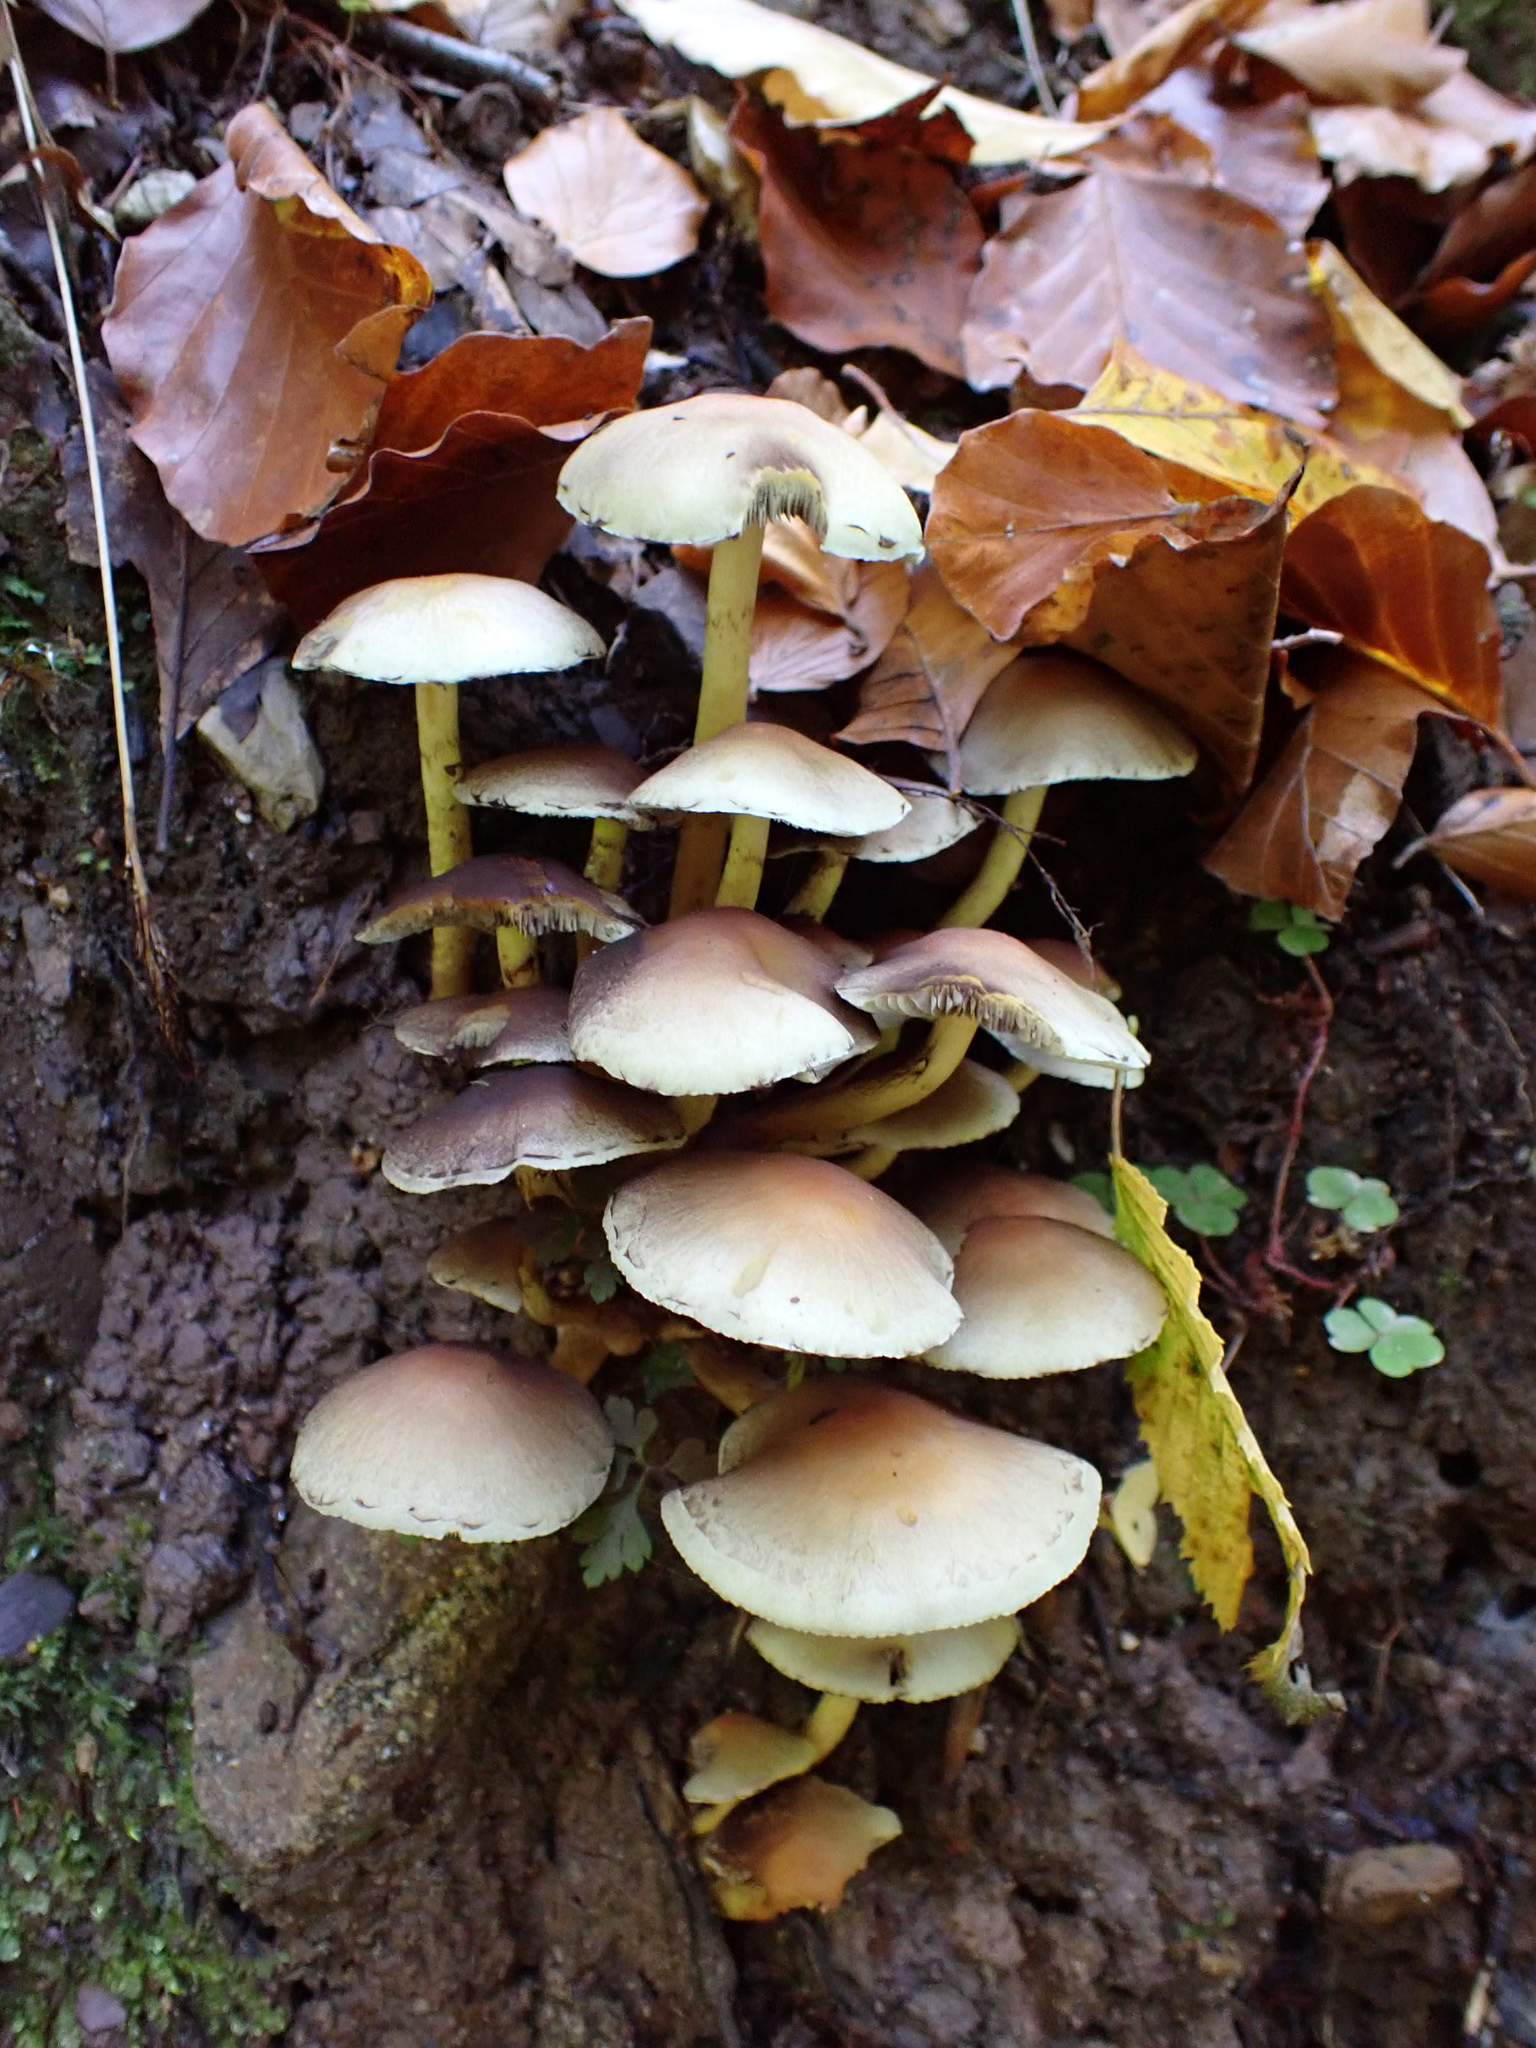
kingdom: Fungi
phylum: Basidiomycota
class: Agaricomycetes
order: Agaricales
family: Strophariaceae
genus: Hypholoma
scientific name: Hypholoma fasciculare
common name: Sulphur tuft
